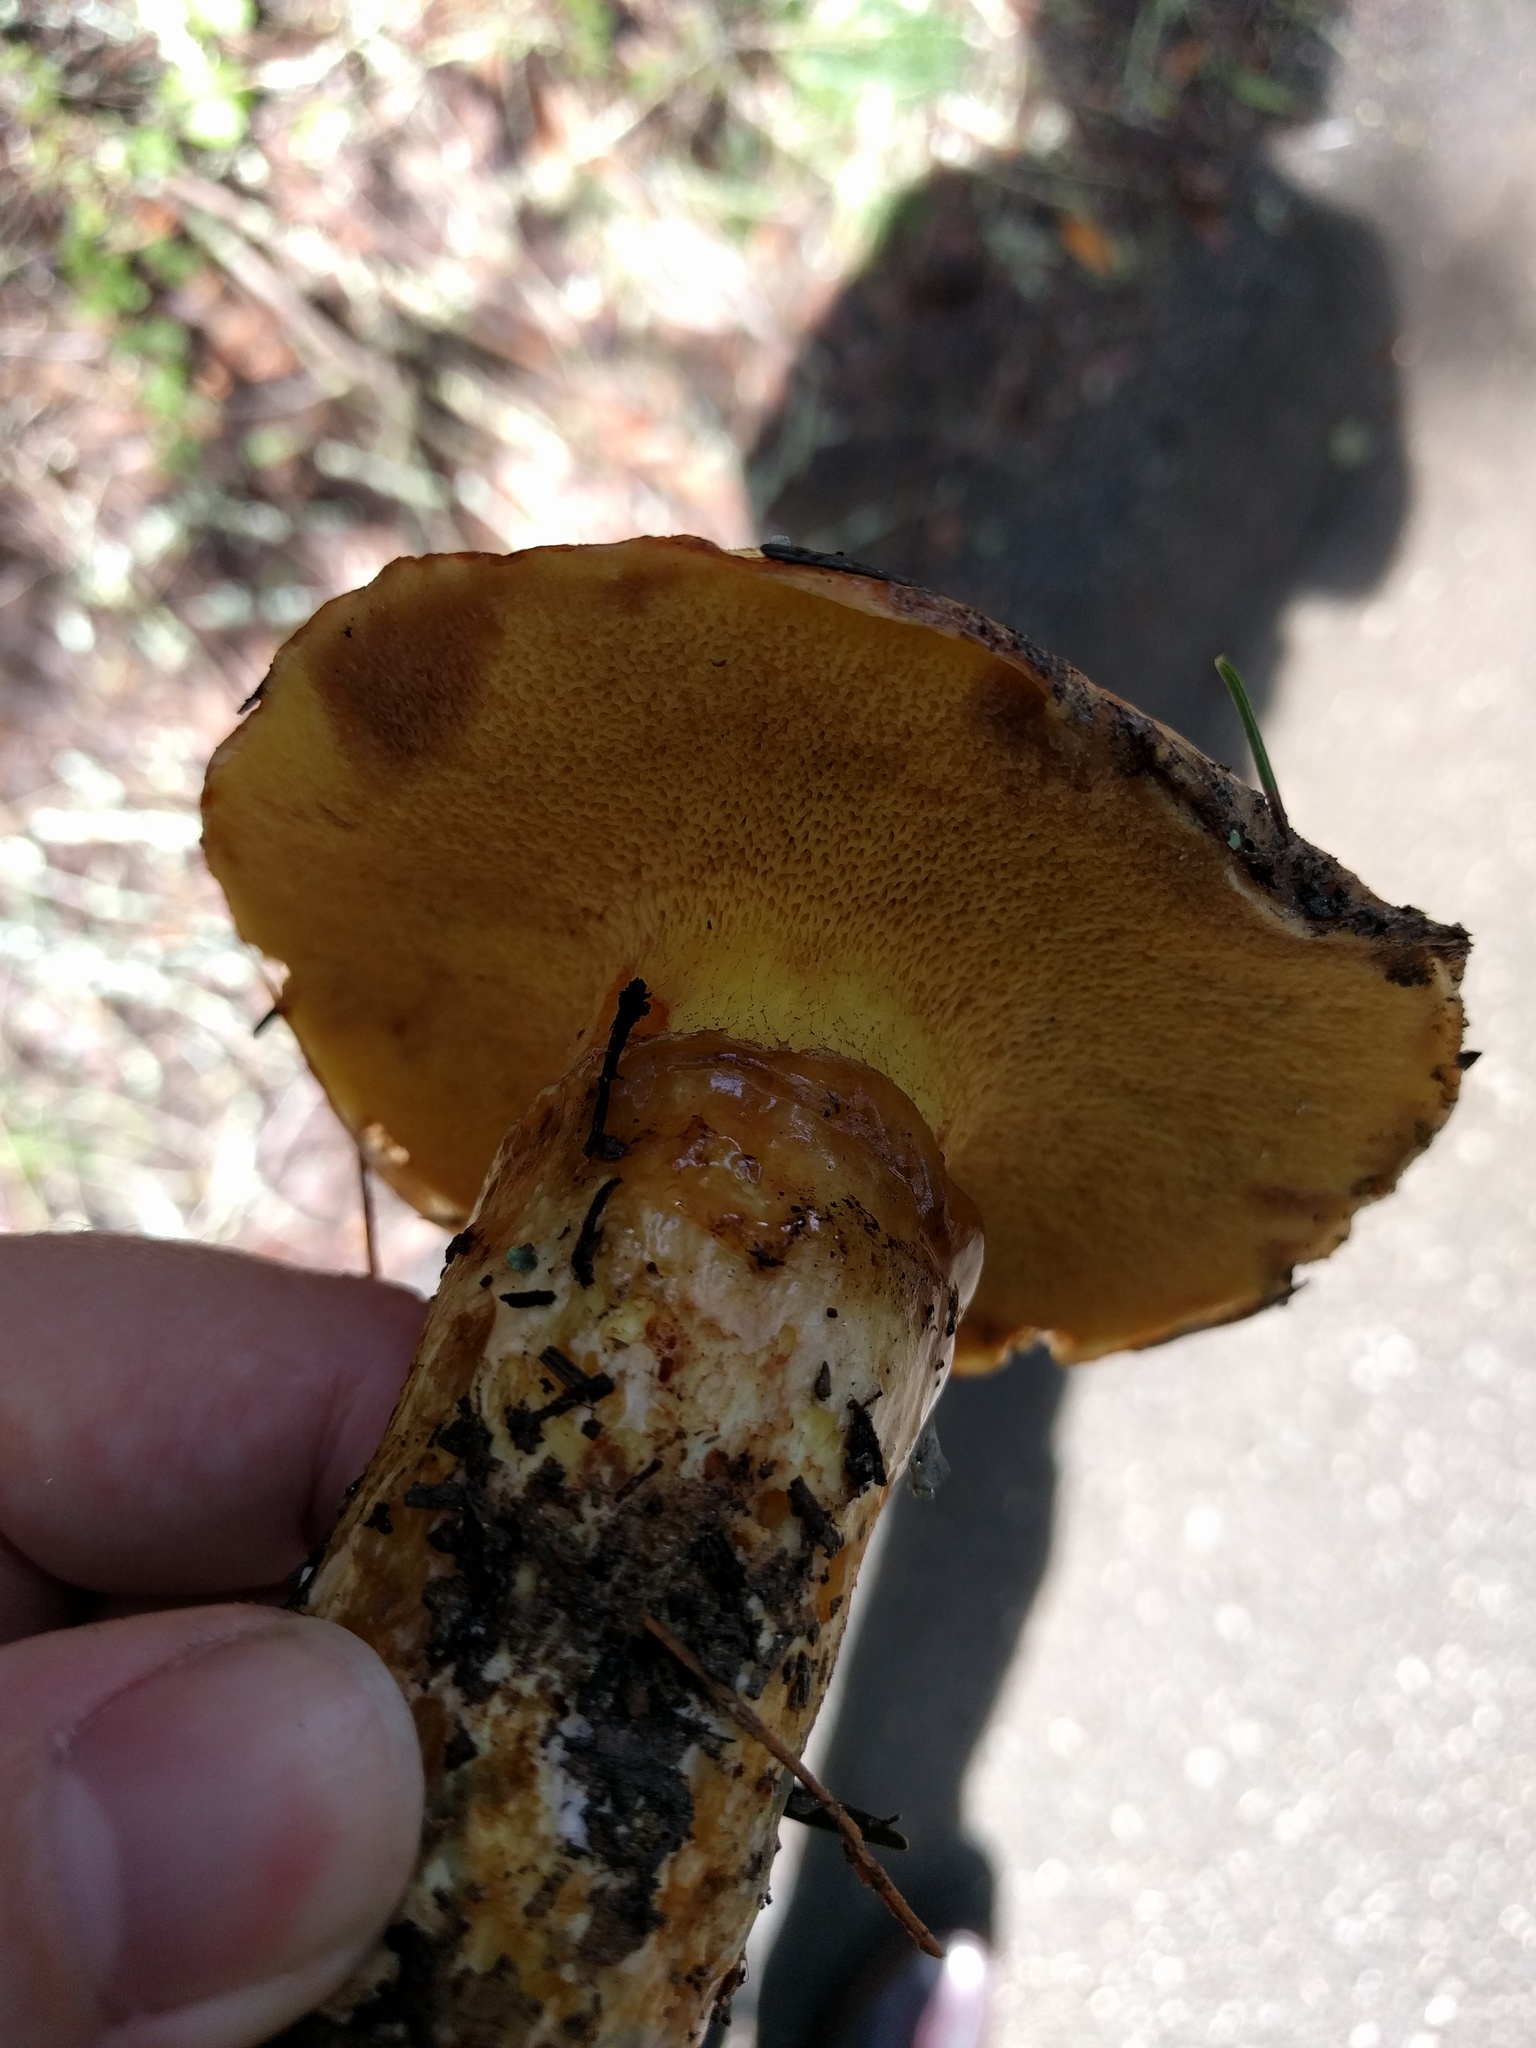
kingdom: Fungi
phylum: Basidiomycota
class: Agaricomycetes
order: Boletales
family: Suillaceae
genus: Suillus
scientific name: Suillus caerulescens
